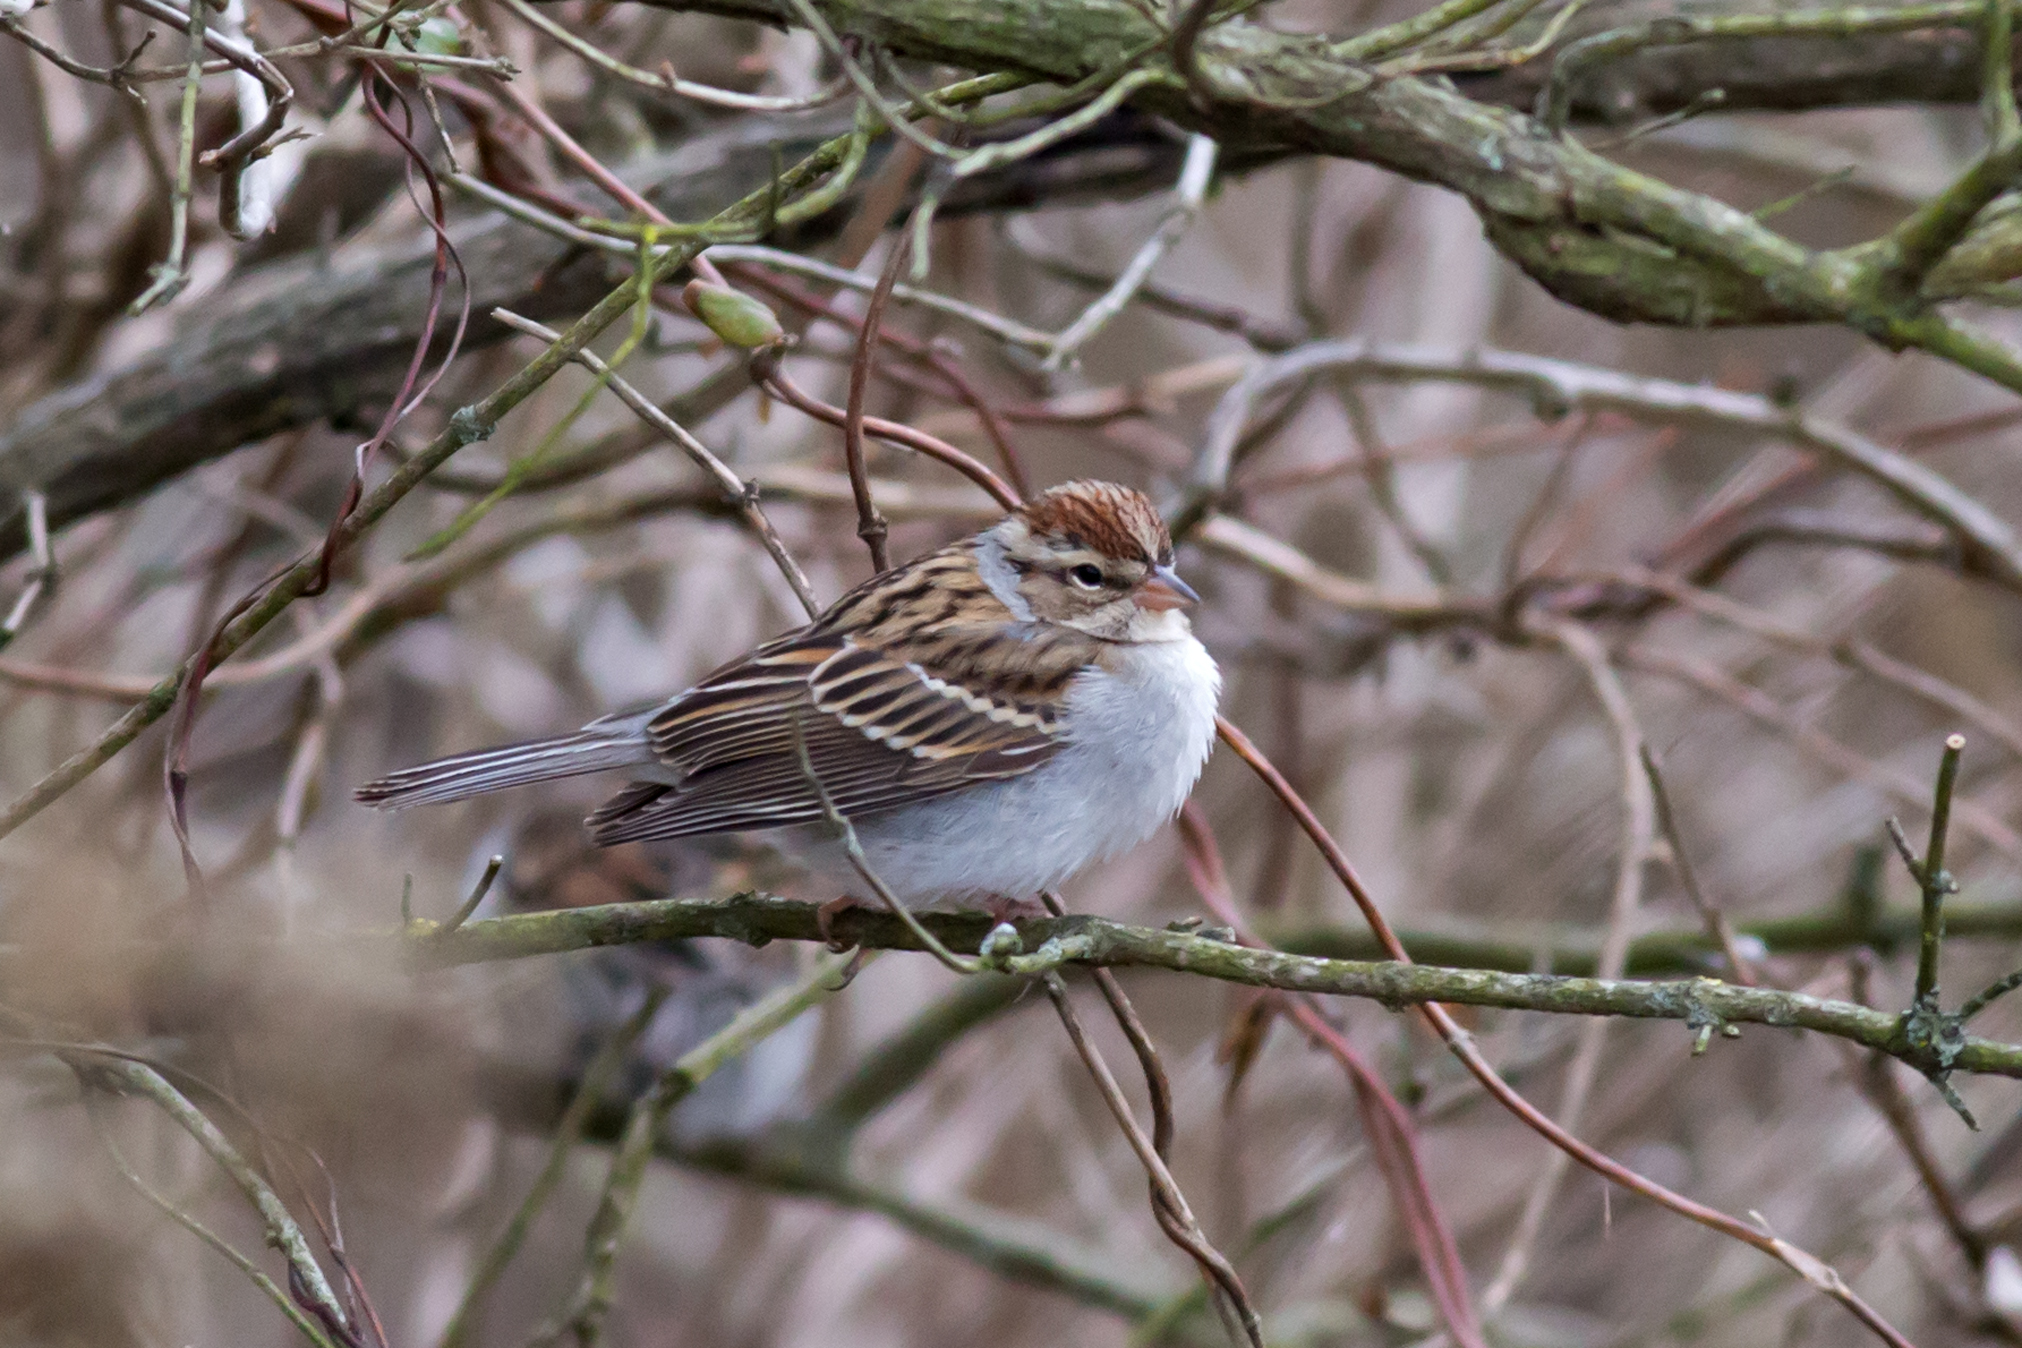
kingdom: Animalia
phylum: Chordata
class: Aves
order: Passeriformes
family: Passerellidae
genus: Spizella
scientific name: Spizella passerina
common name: Chipping sparrow
